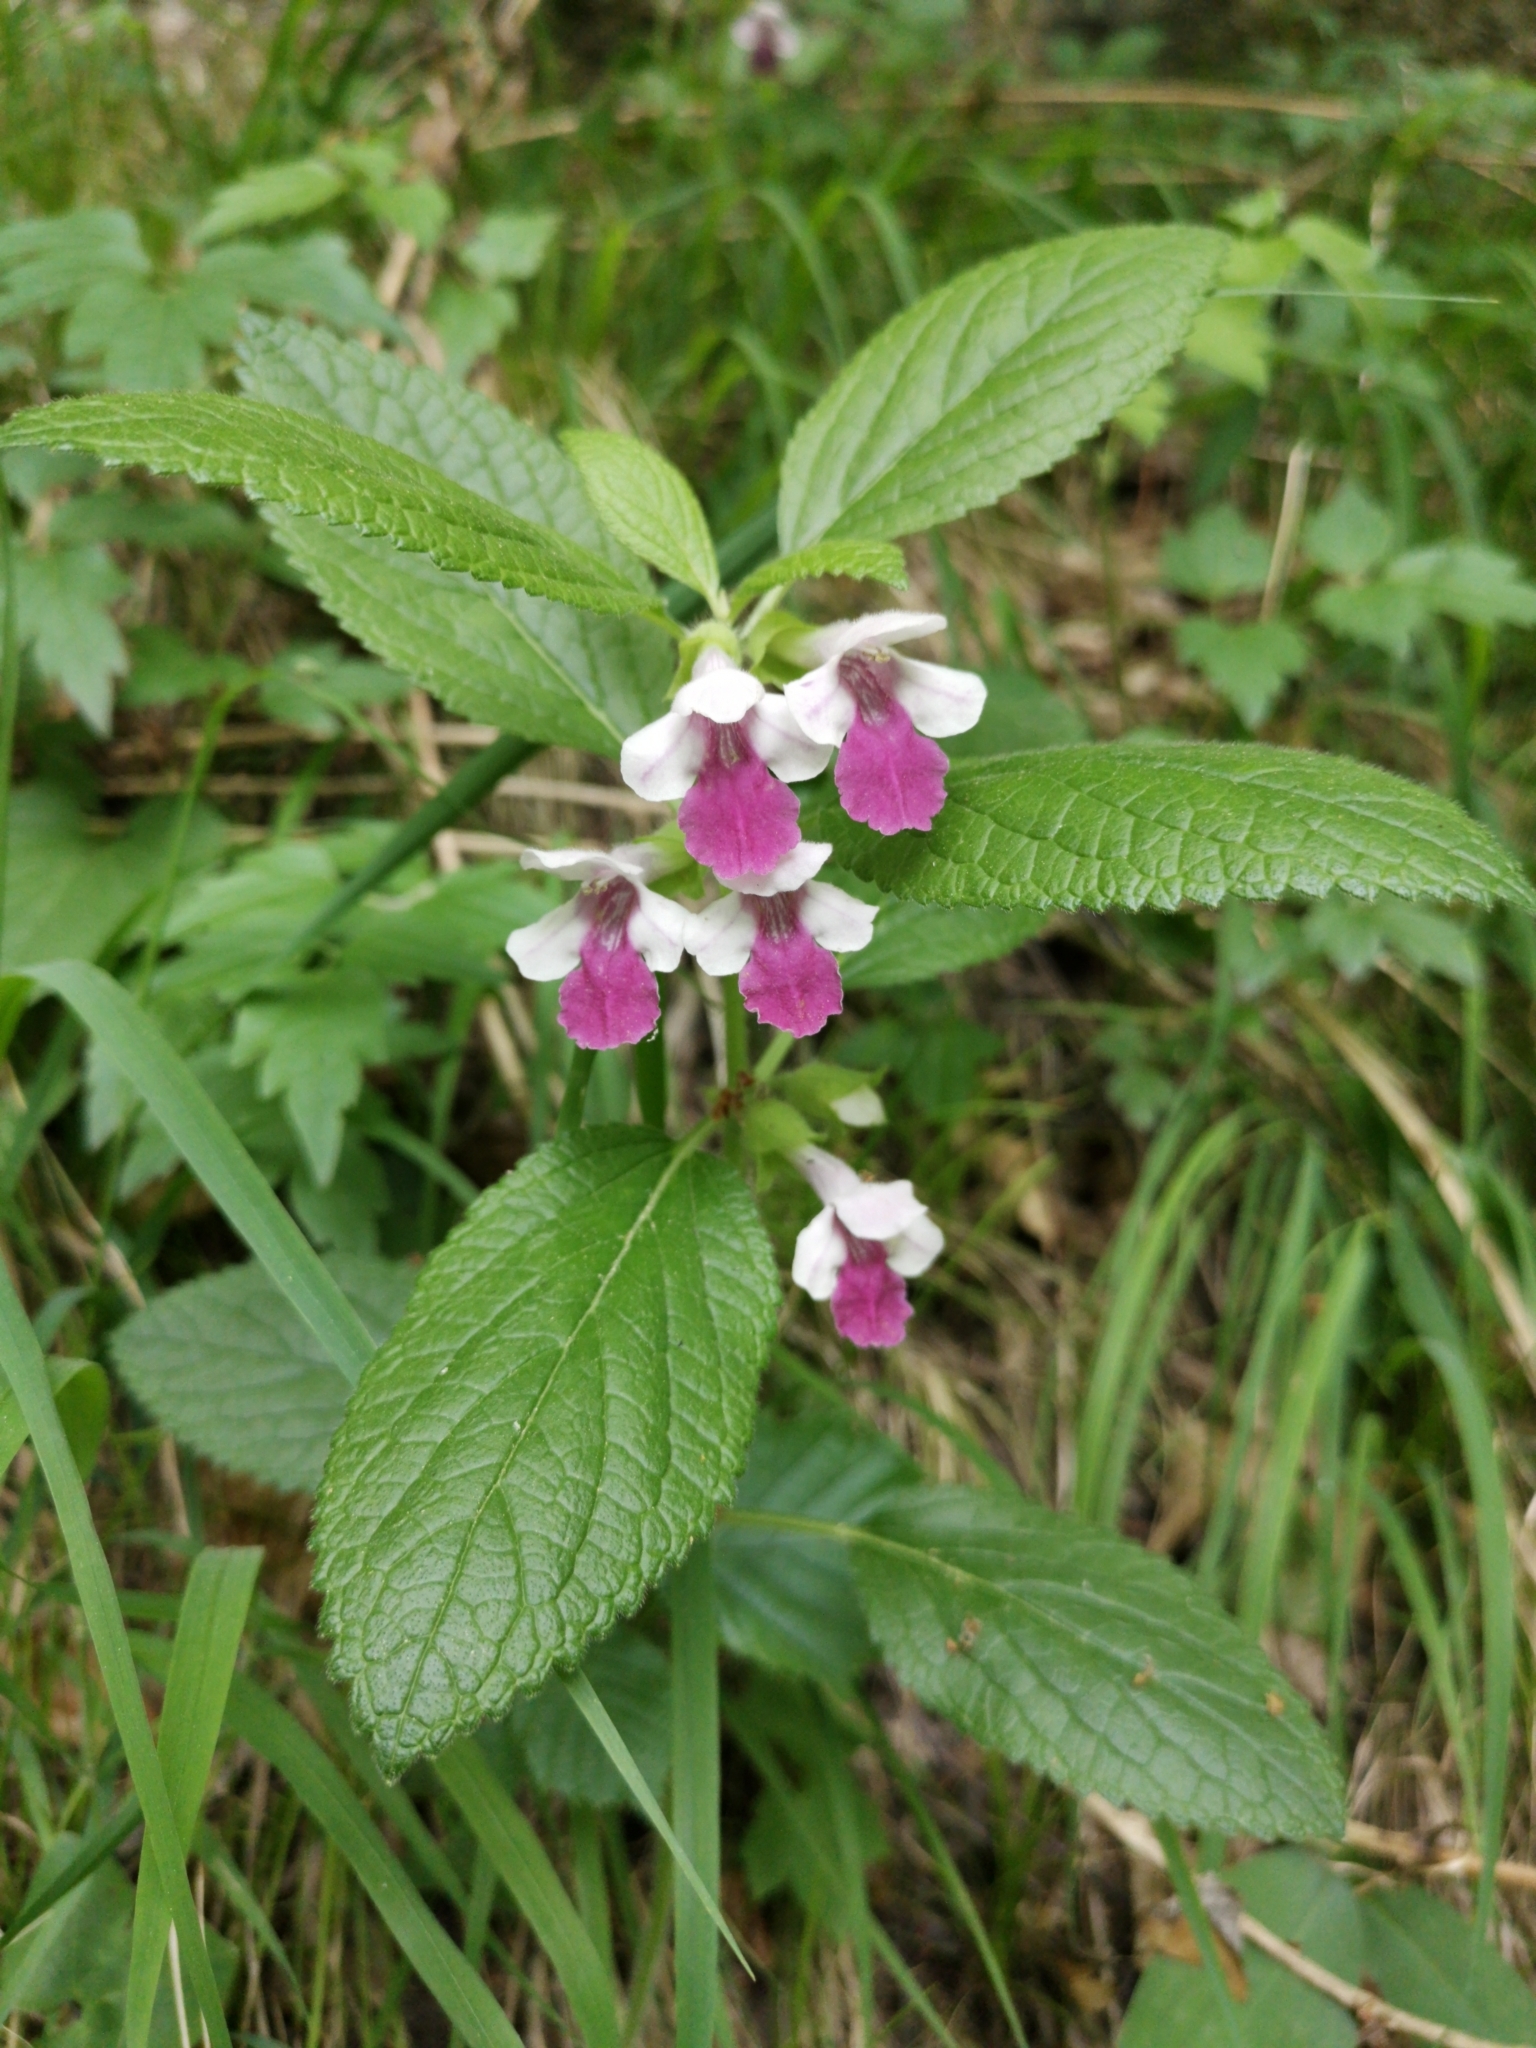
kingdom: Plantae
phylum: Tracheophyta
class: Magnoliopsida
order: Lamiales
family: Lamiaceae
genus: Melittis
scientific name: Melittis melissophyllum
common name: Bastard balm
